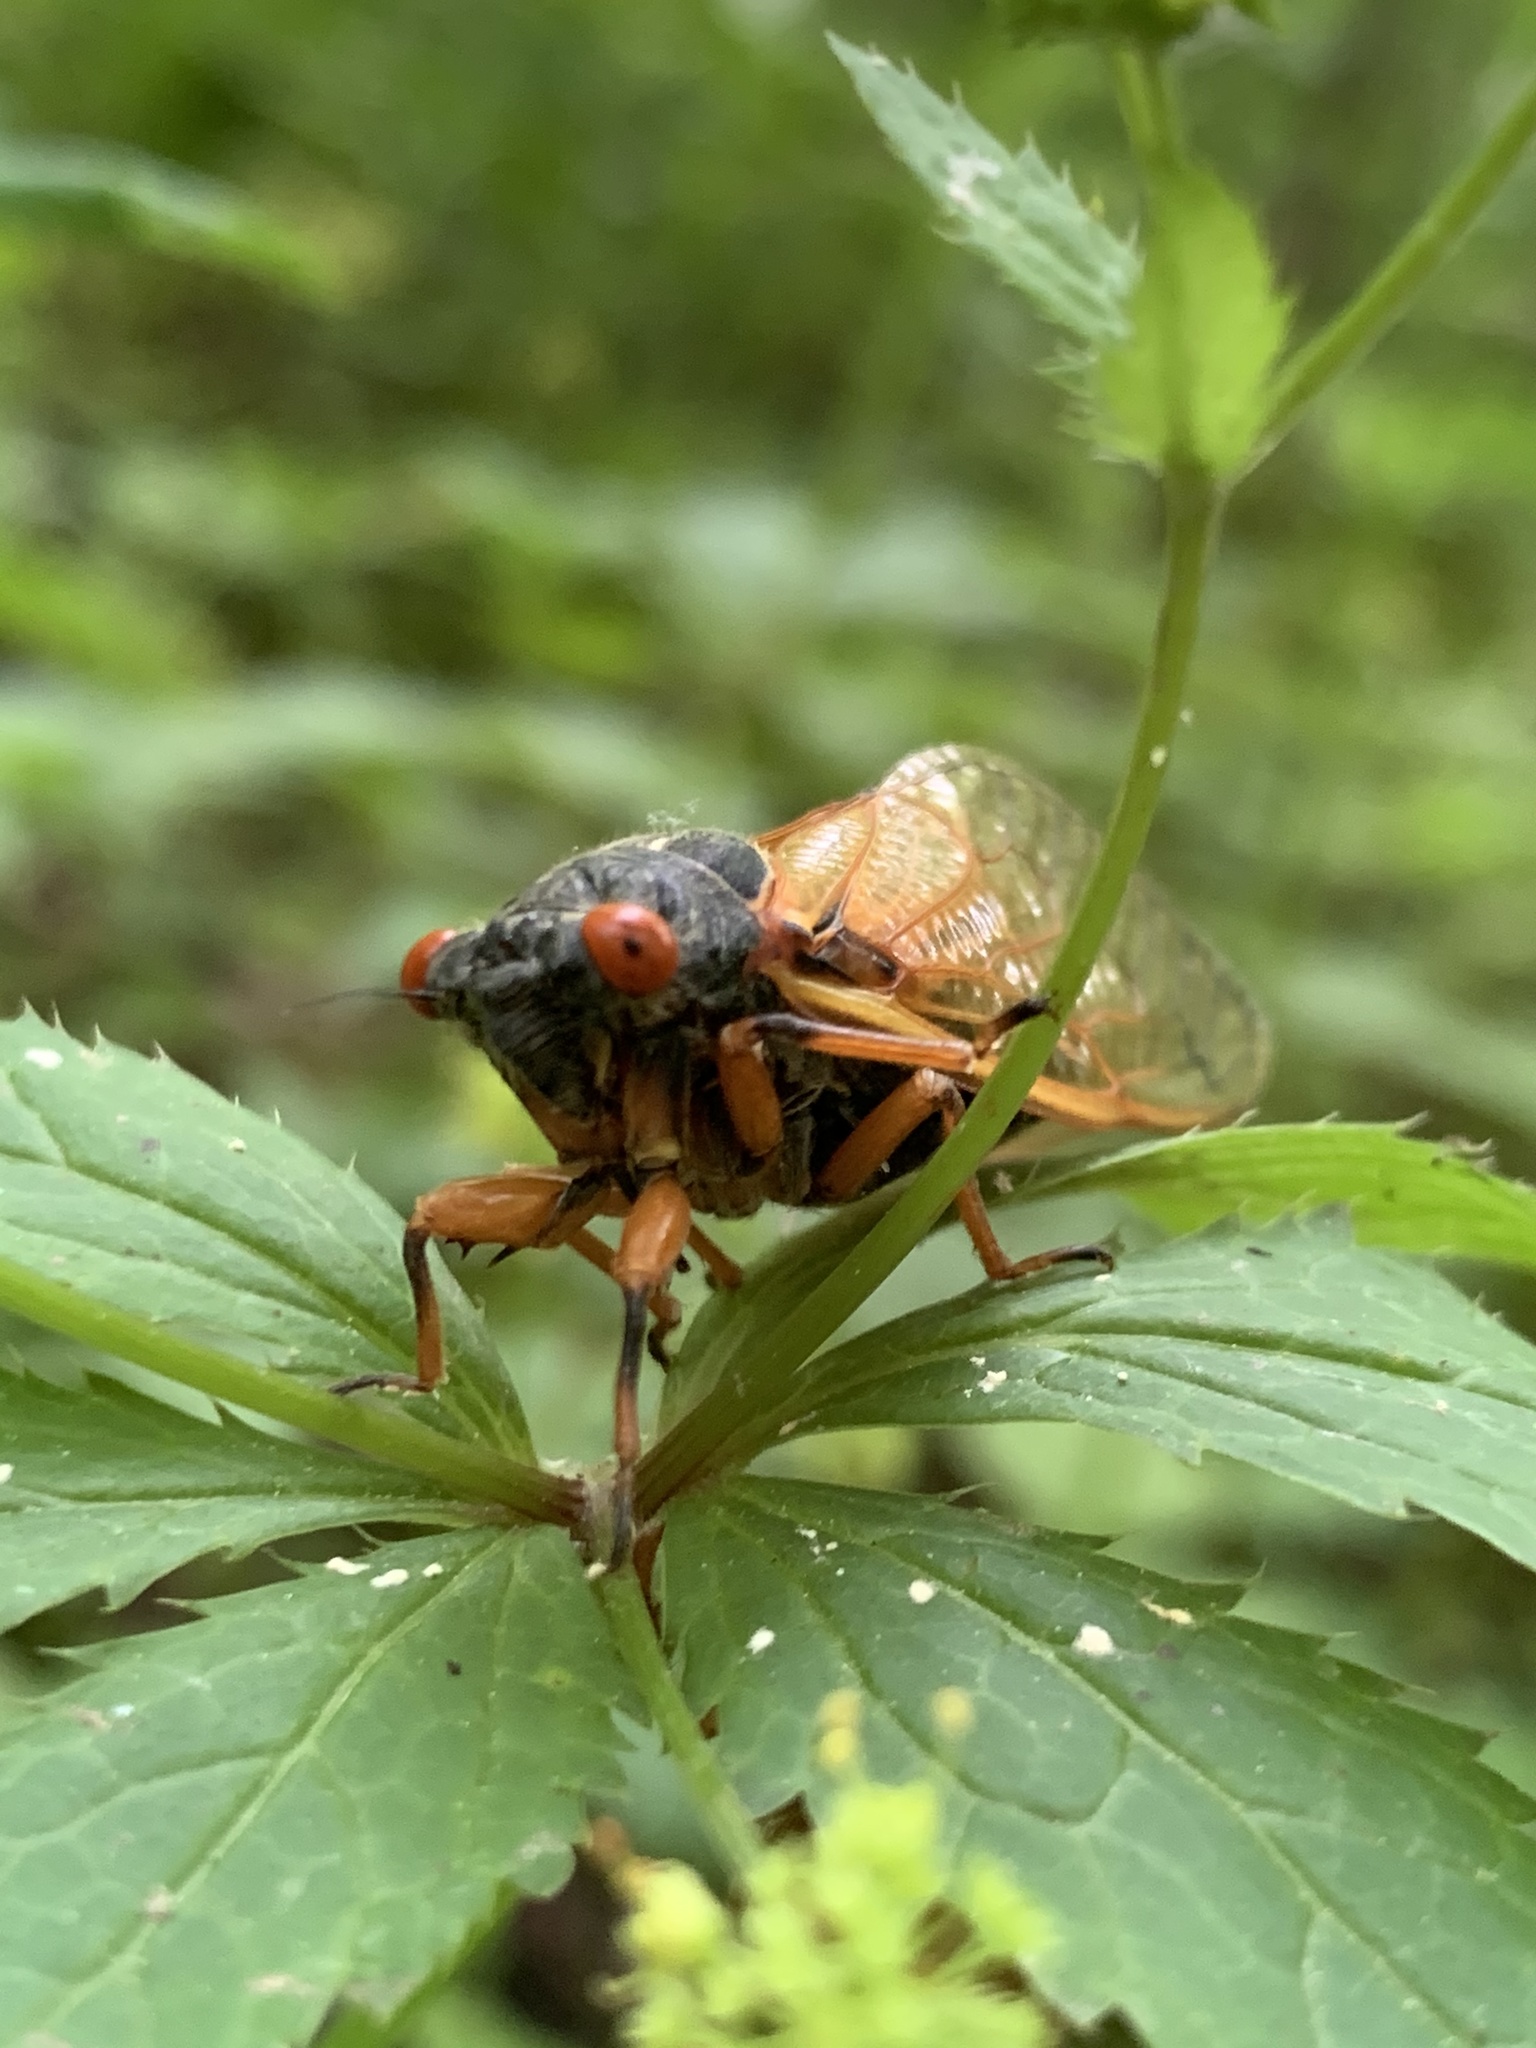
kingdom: Animalia
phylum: Arthropoda
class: Insecta
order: Hemiptera
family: Cicadidae
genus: Magicicada
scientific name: Magicicada cassini
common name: Cassin's 17-year cicada
